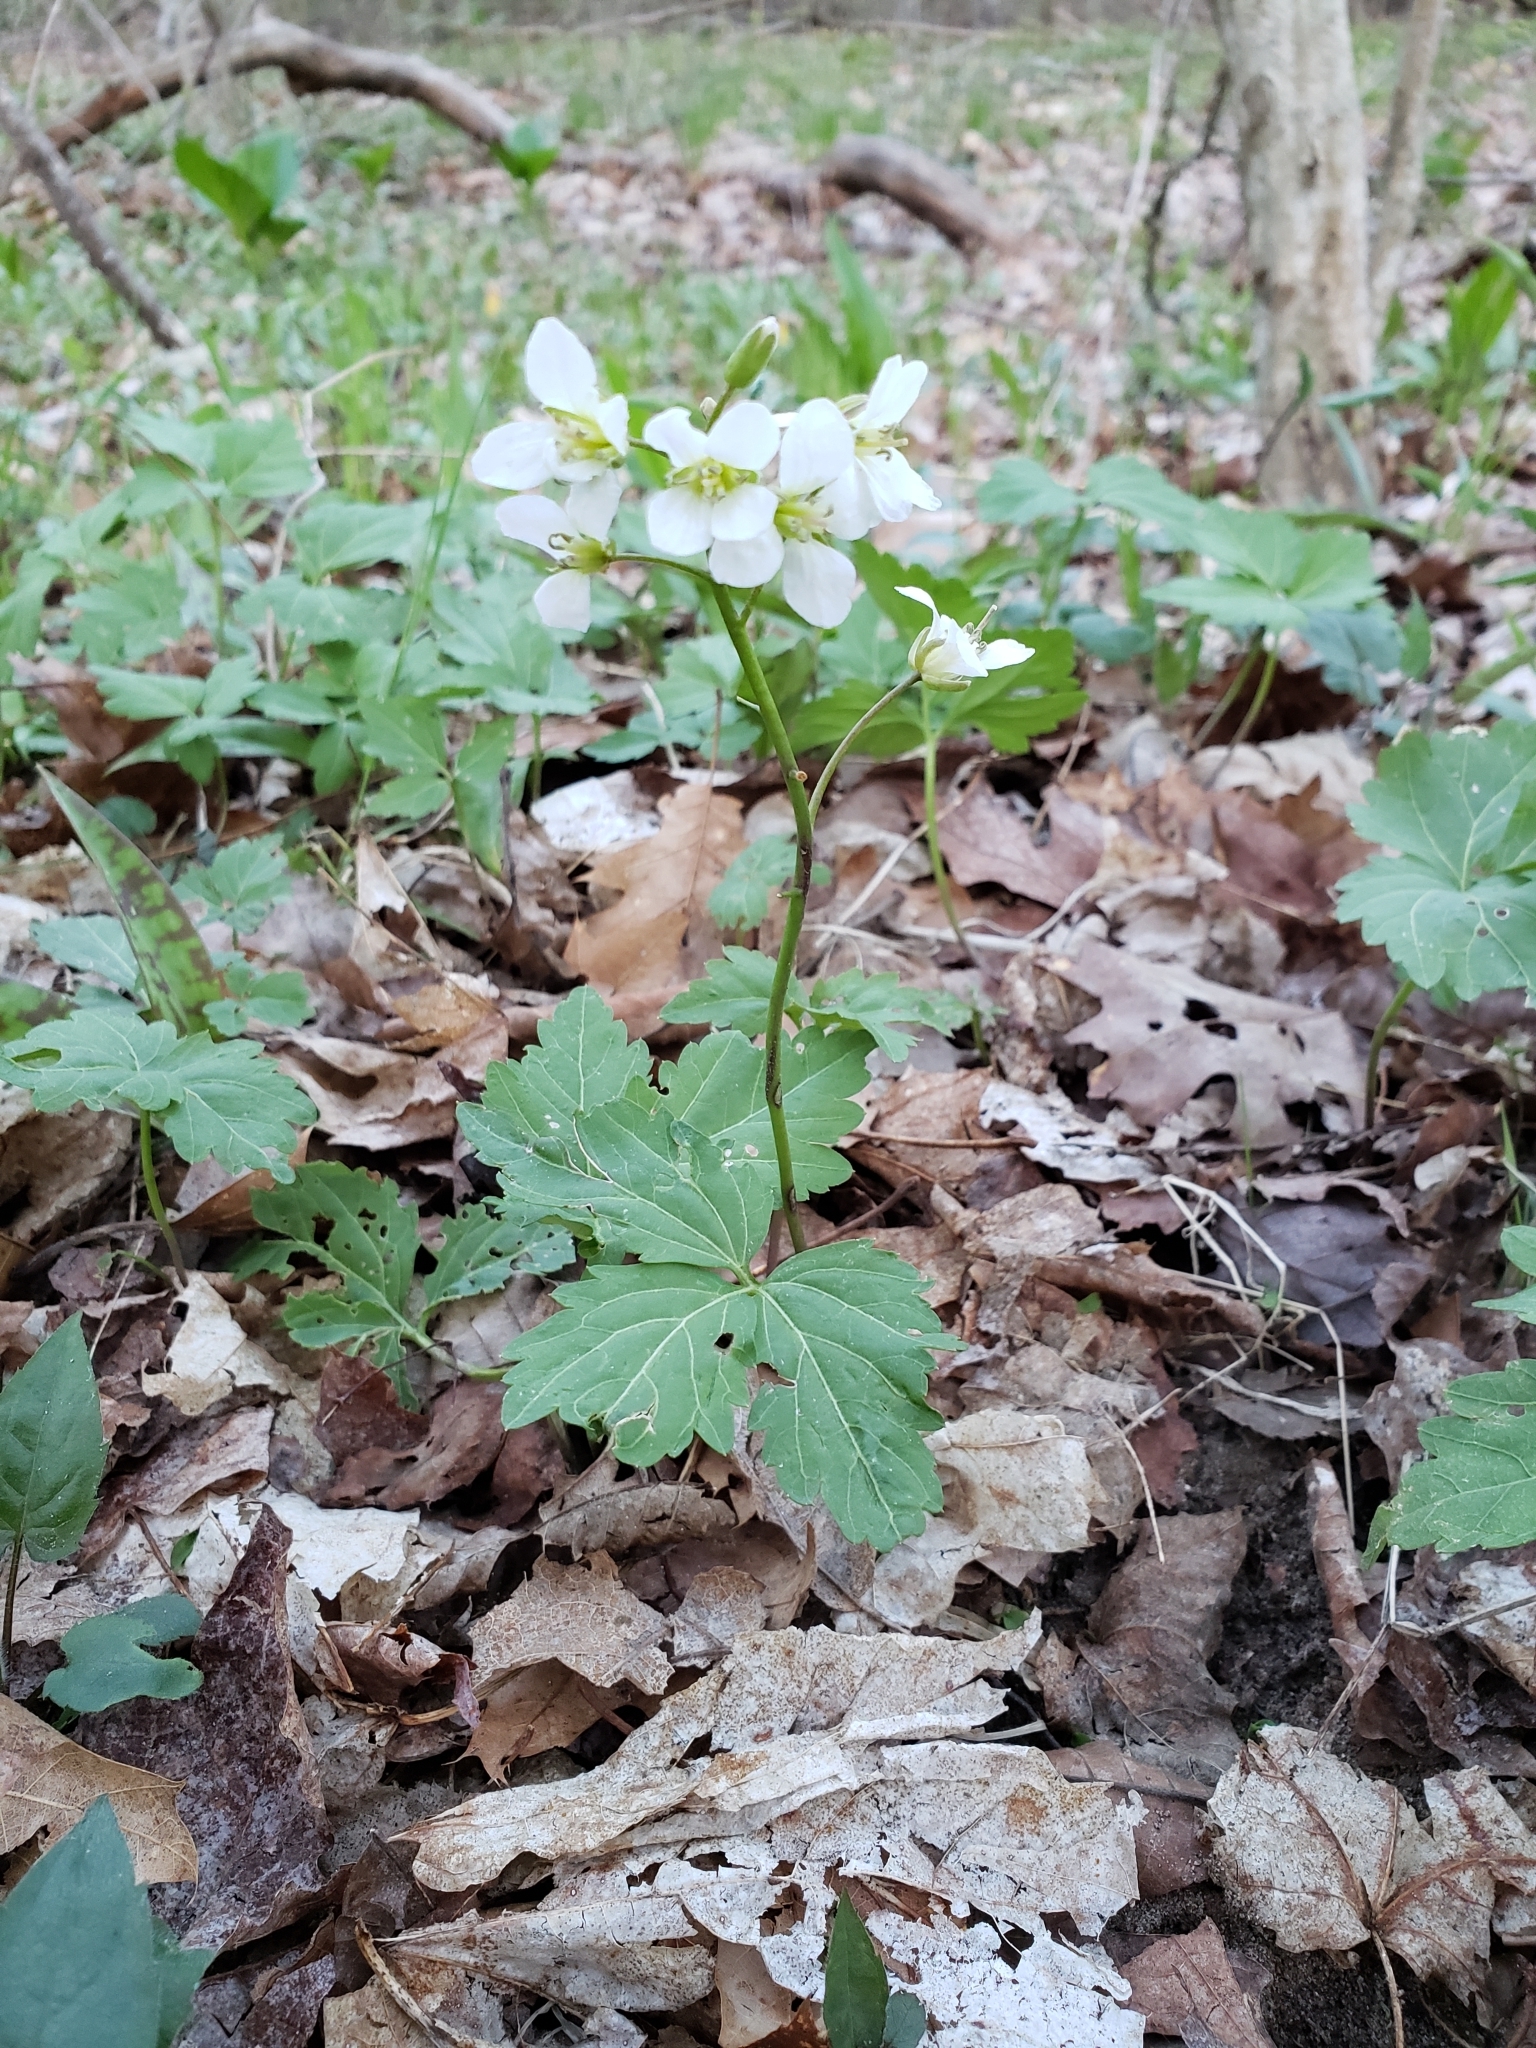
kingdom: Plantae
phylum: Tracheophyta
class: Magnoliopsida
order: Brassicales
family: Brassicaceae
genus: Cardamine
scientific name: Cardamine diphylla
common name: Broad-leaved toothwort
